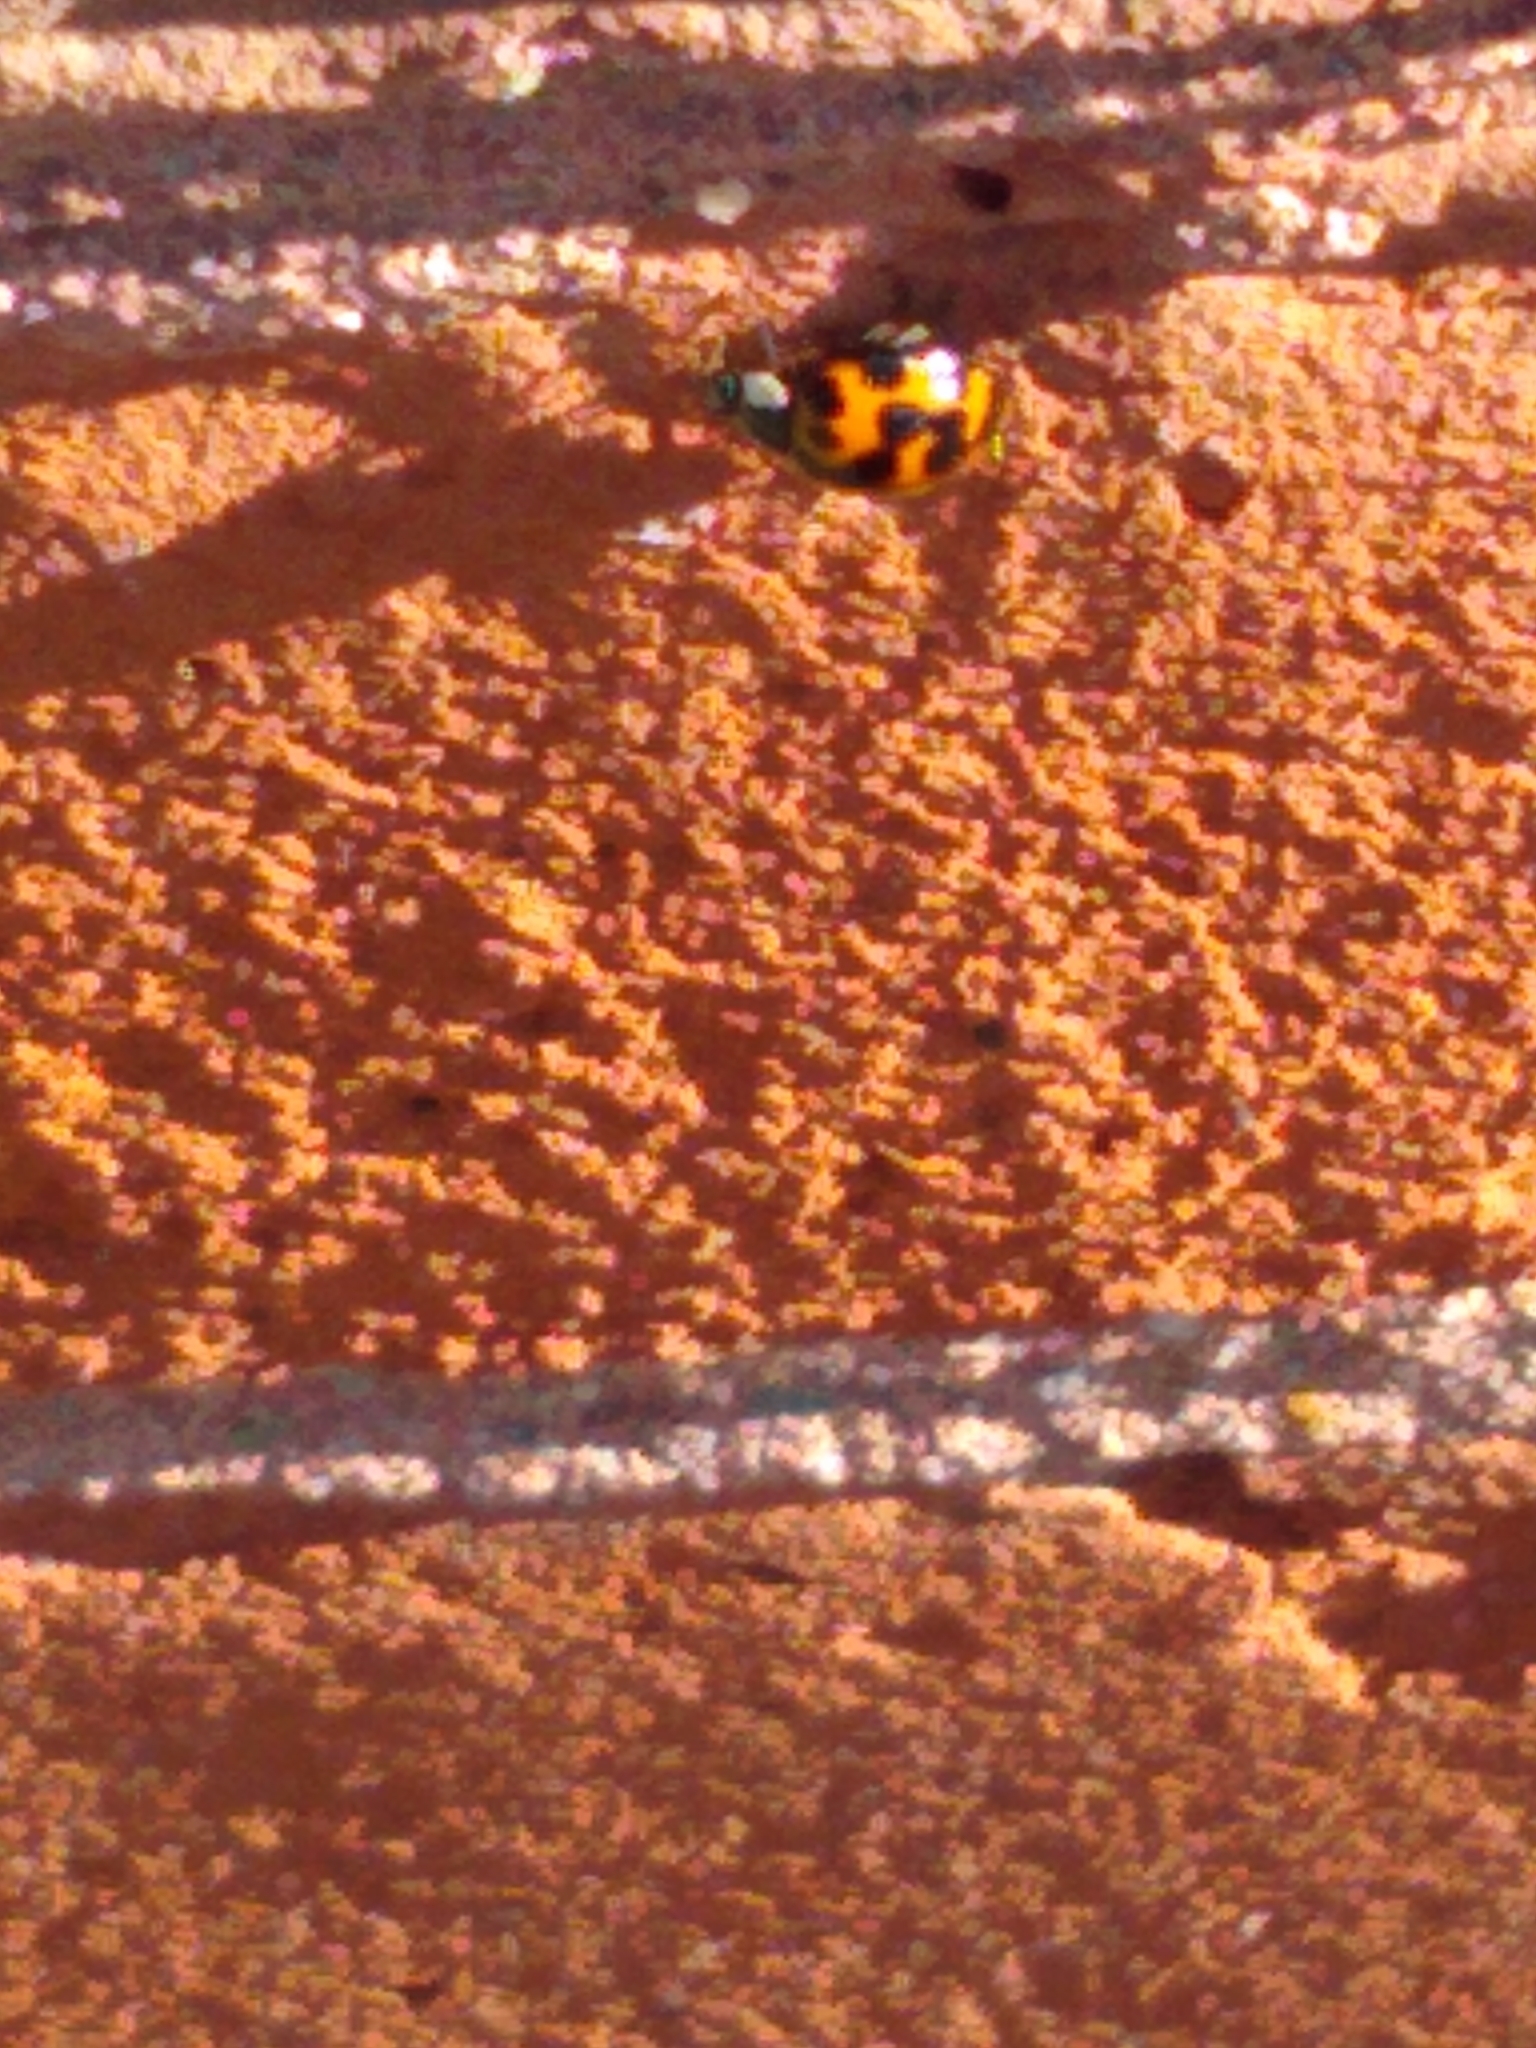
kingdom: Animalia
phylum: Arthropoda
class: Insecta
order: Coleoptera
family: Coccinellidae
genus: Harmonia
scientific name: Harmonia axyridis
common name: Harlequin ladybird
